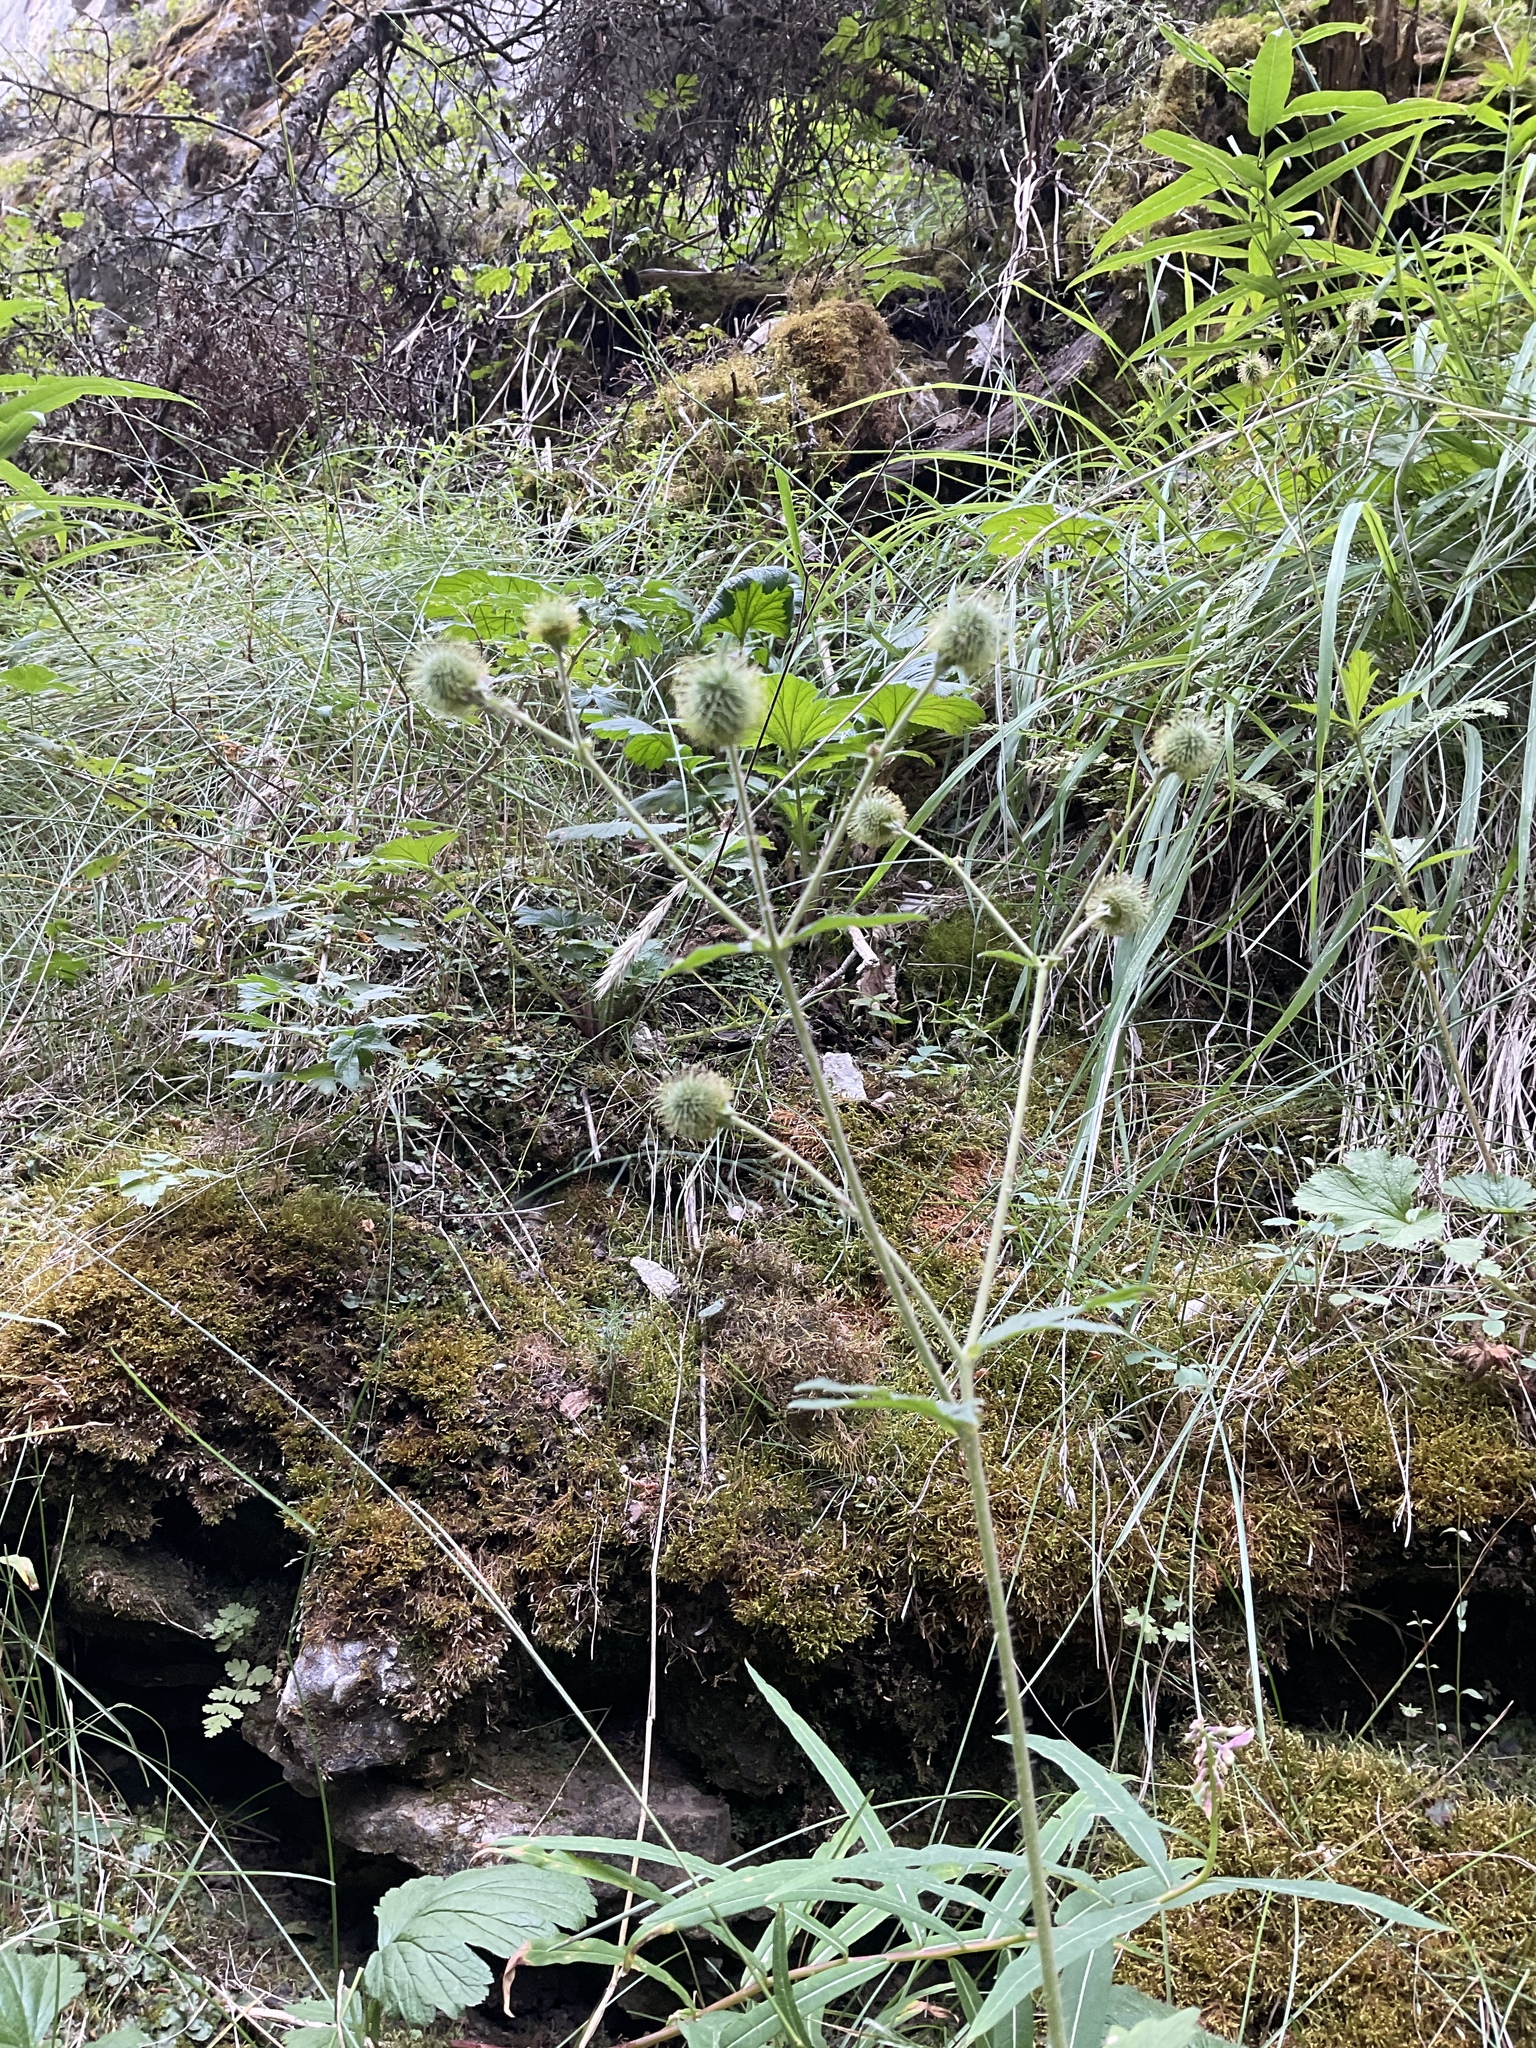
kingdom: Plantae
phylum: Tracheophyta
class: Magnoliopsida
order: Rosales
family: Rosaceae
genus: Geum
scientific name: Geum macrophyllum
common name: Large-leaved avens
